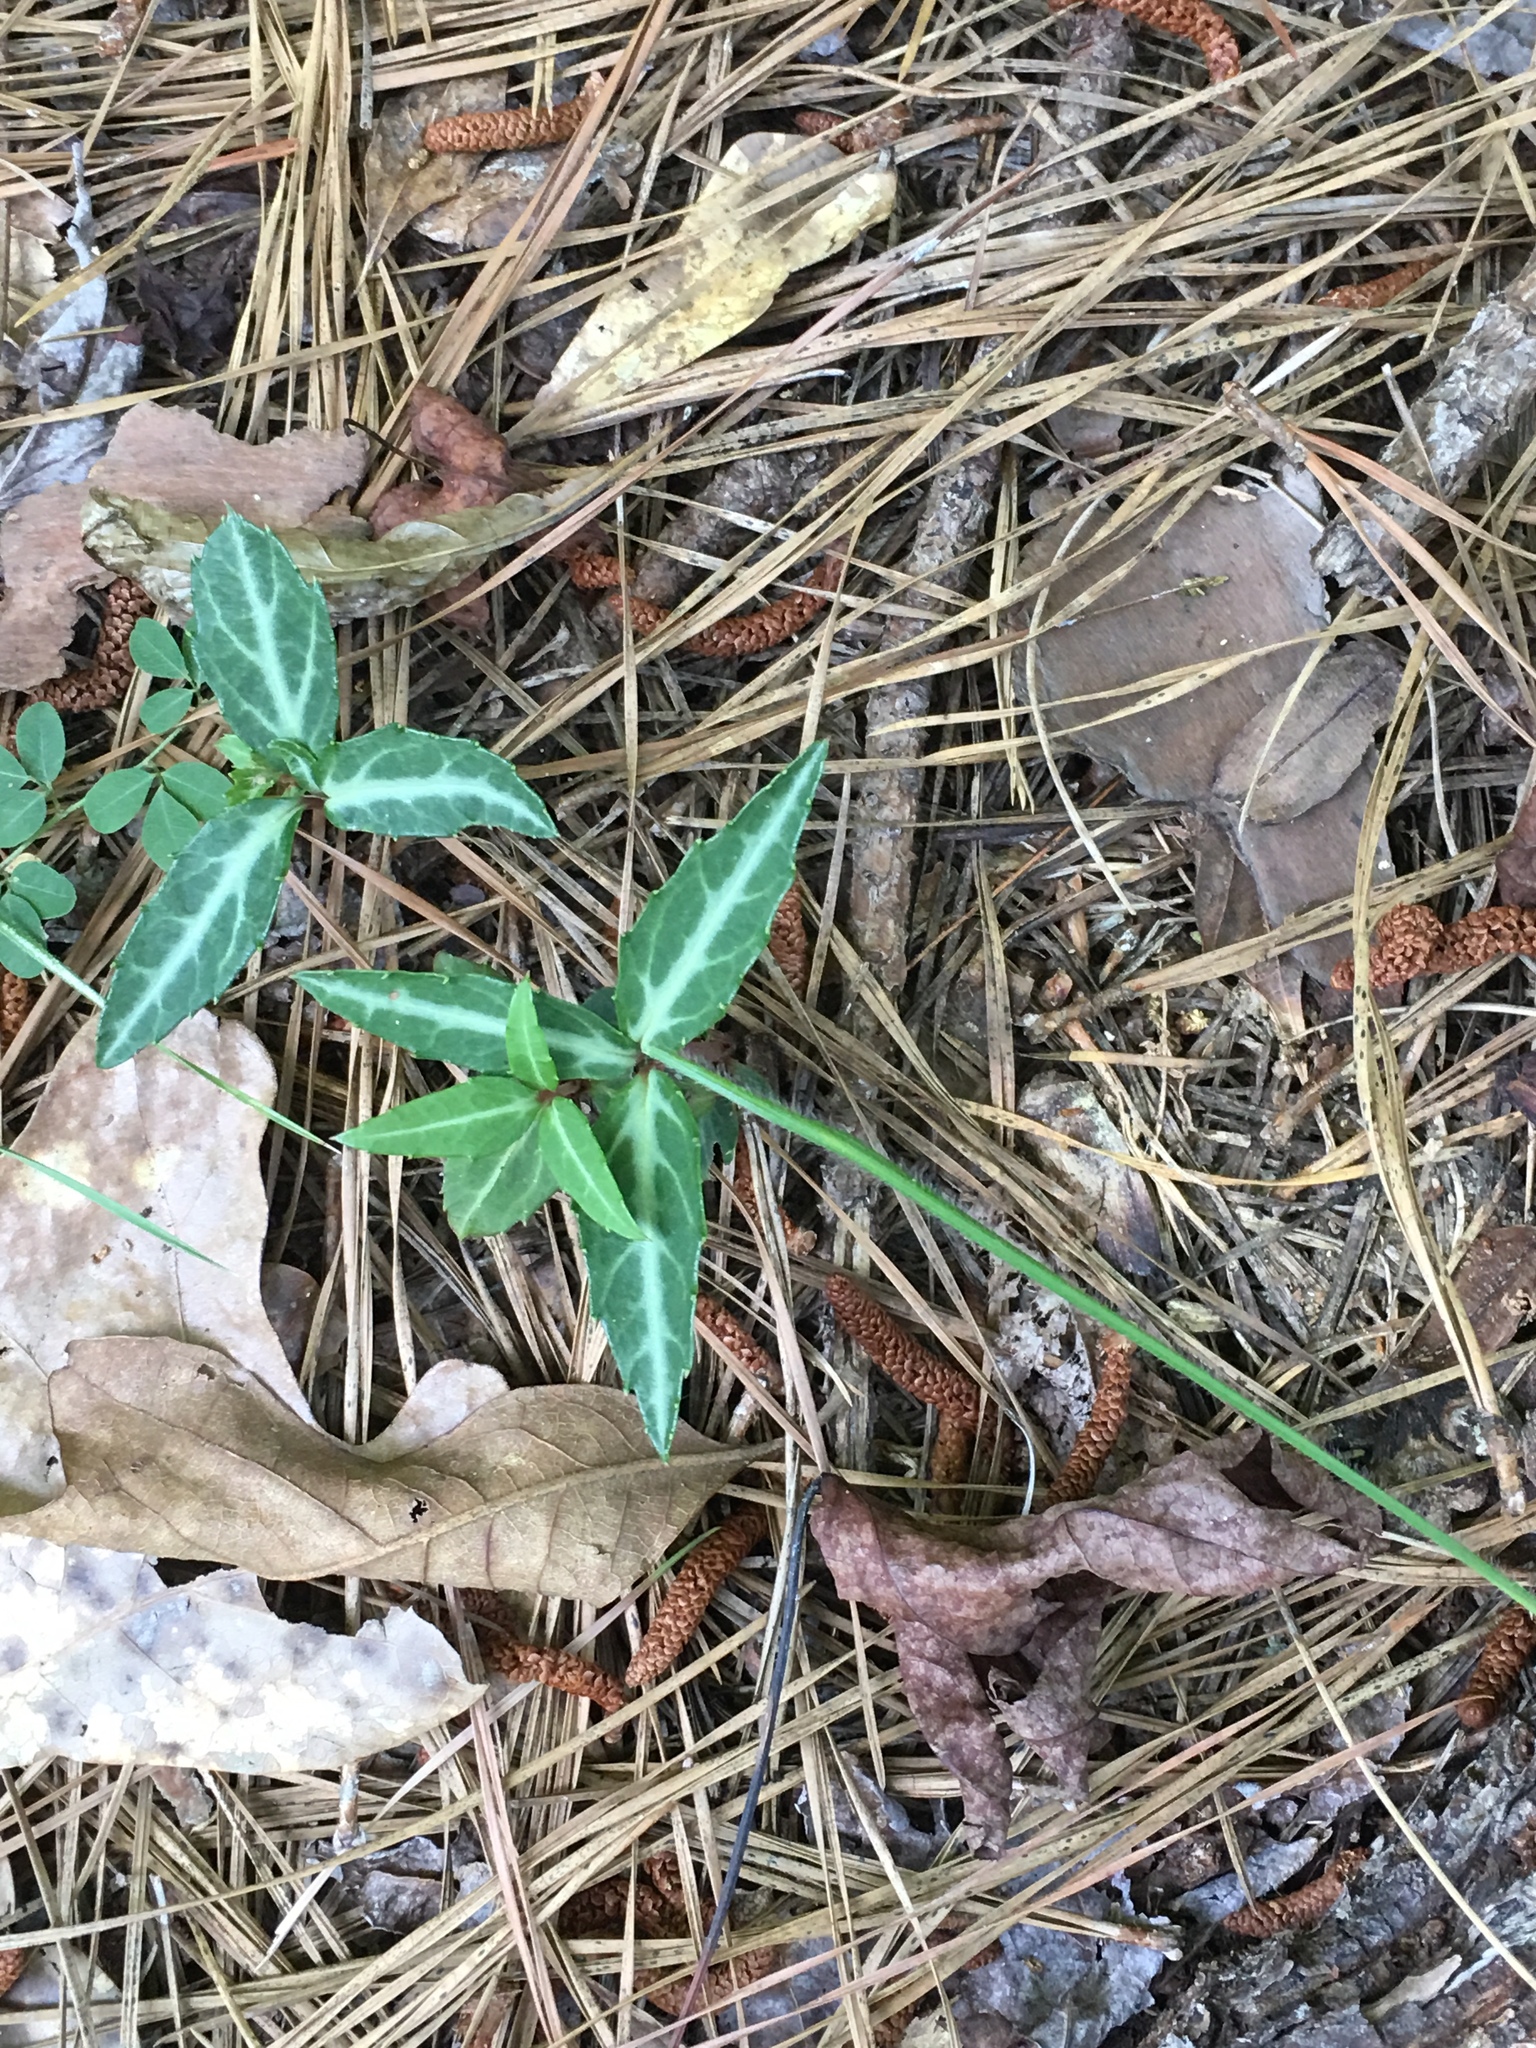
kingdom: Plantae
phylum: Tracheophyta
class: Magnoliopsida
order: Ericales
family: Ericaceae
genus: Chimaphila
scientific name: Chimaphila maculata
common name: Spotted pipsissewa
